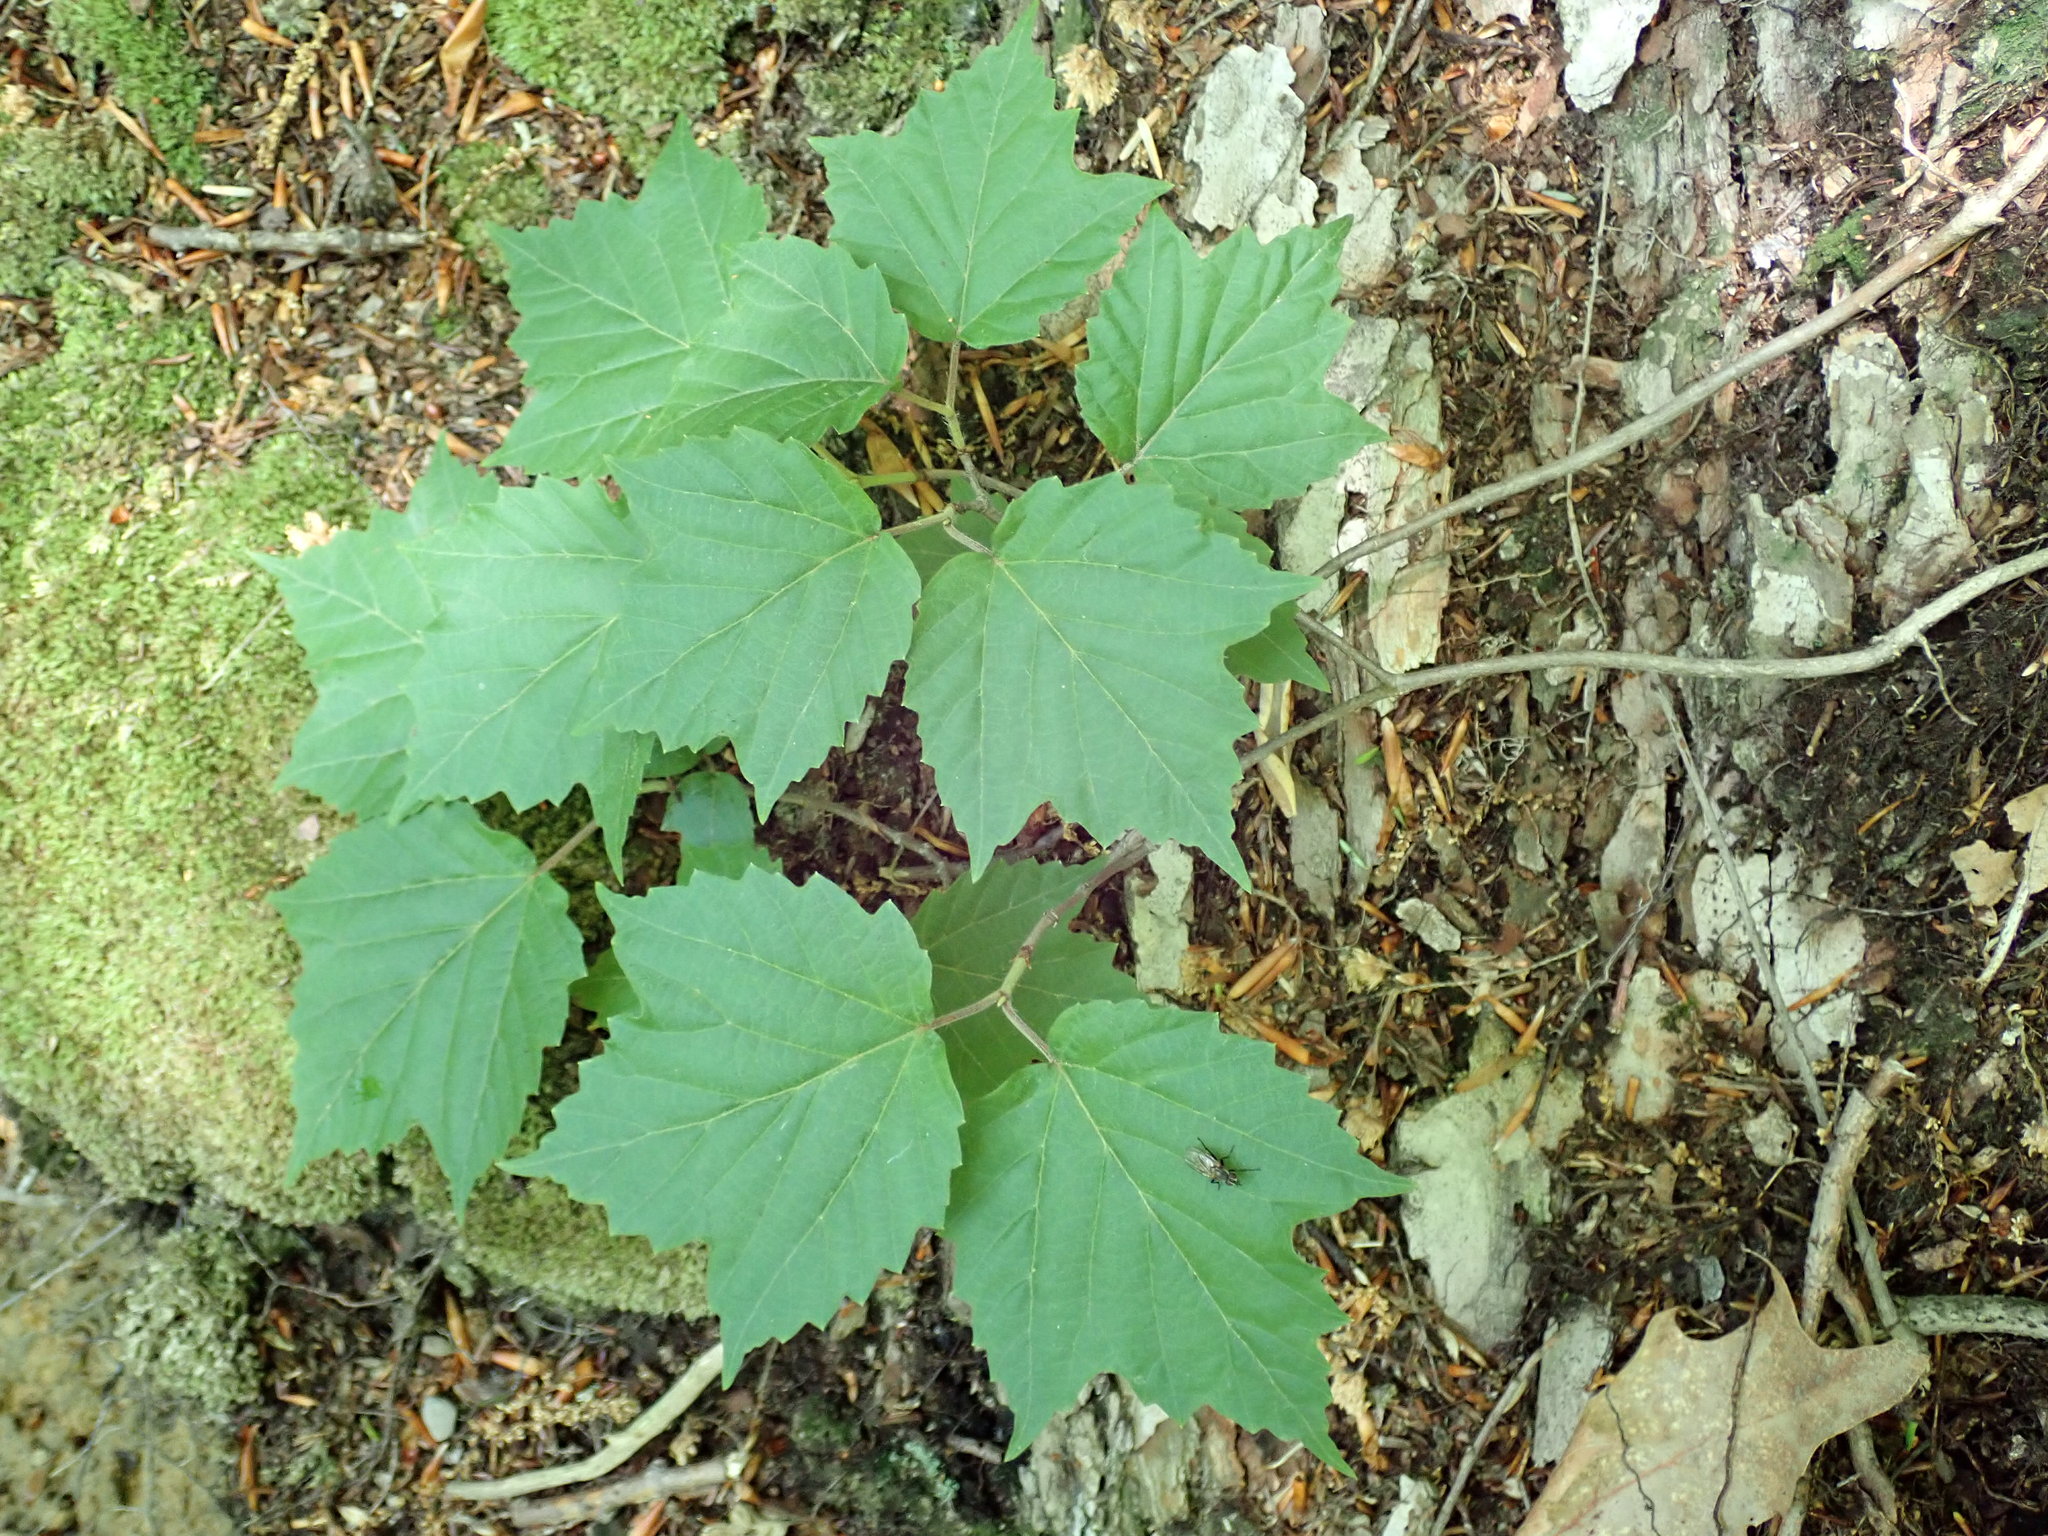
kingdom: Plantae
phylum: Tracheophyta
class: Magnoliopsida
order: Dipsacales
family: Viburnaceae
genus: Viburnum
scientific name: Viburnum acerifolium
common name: Dockmackie
